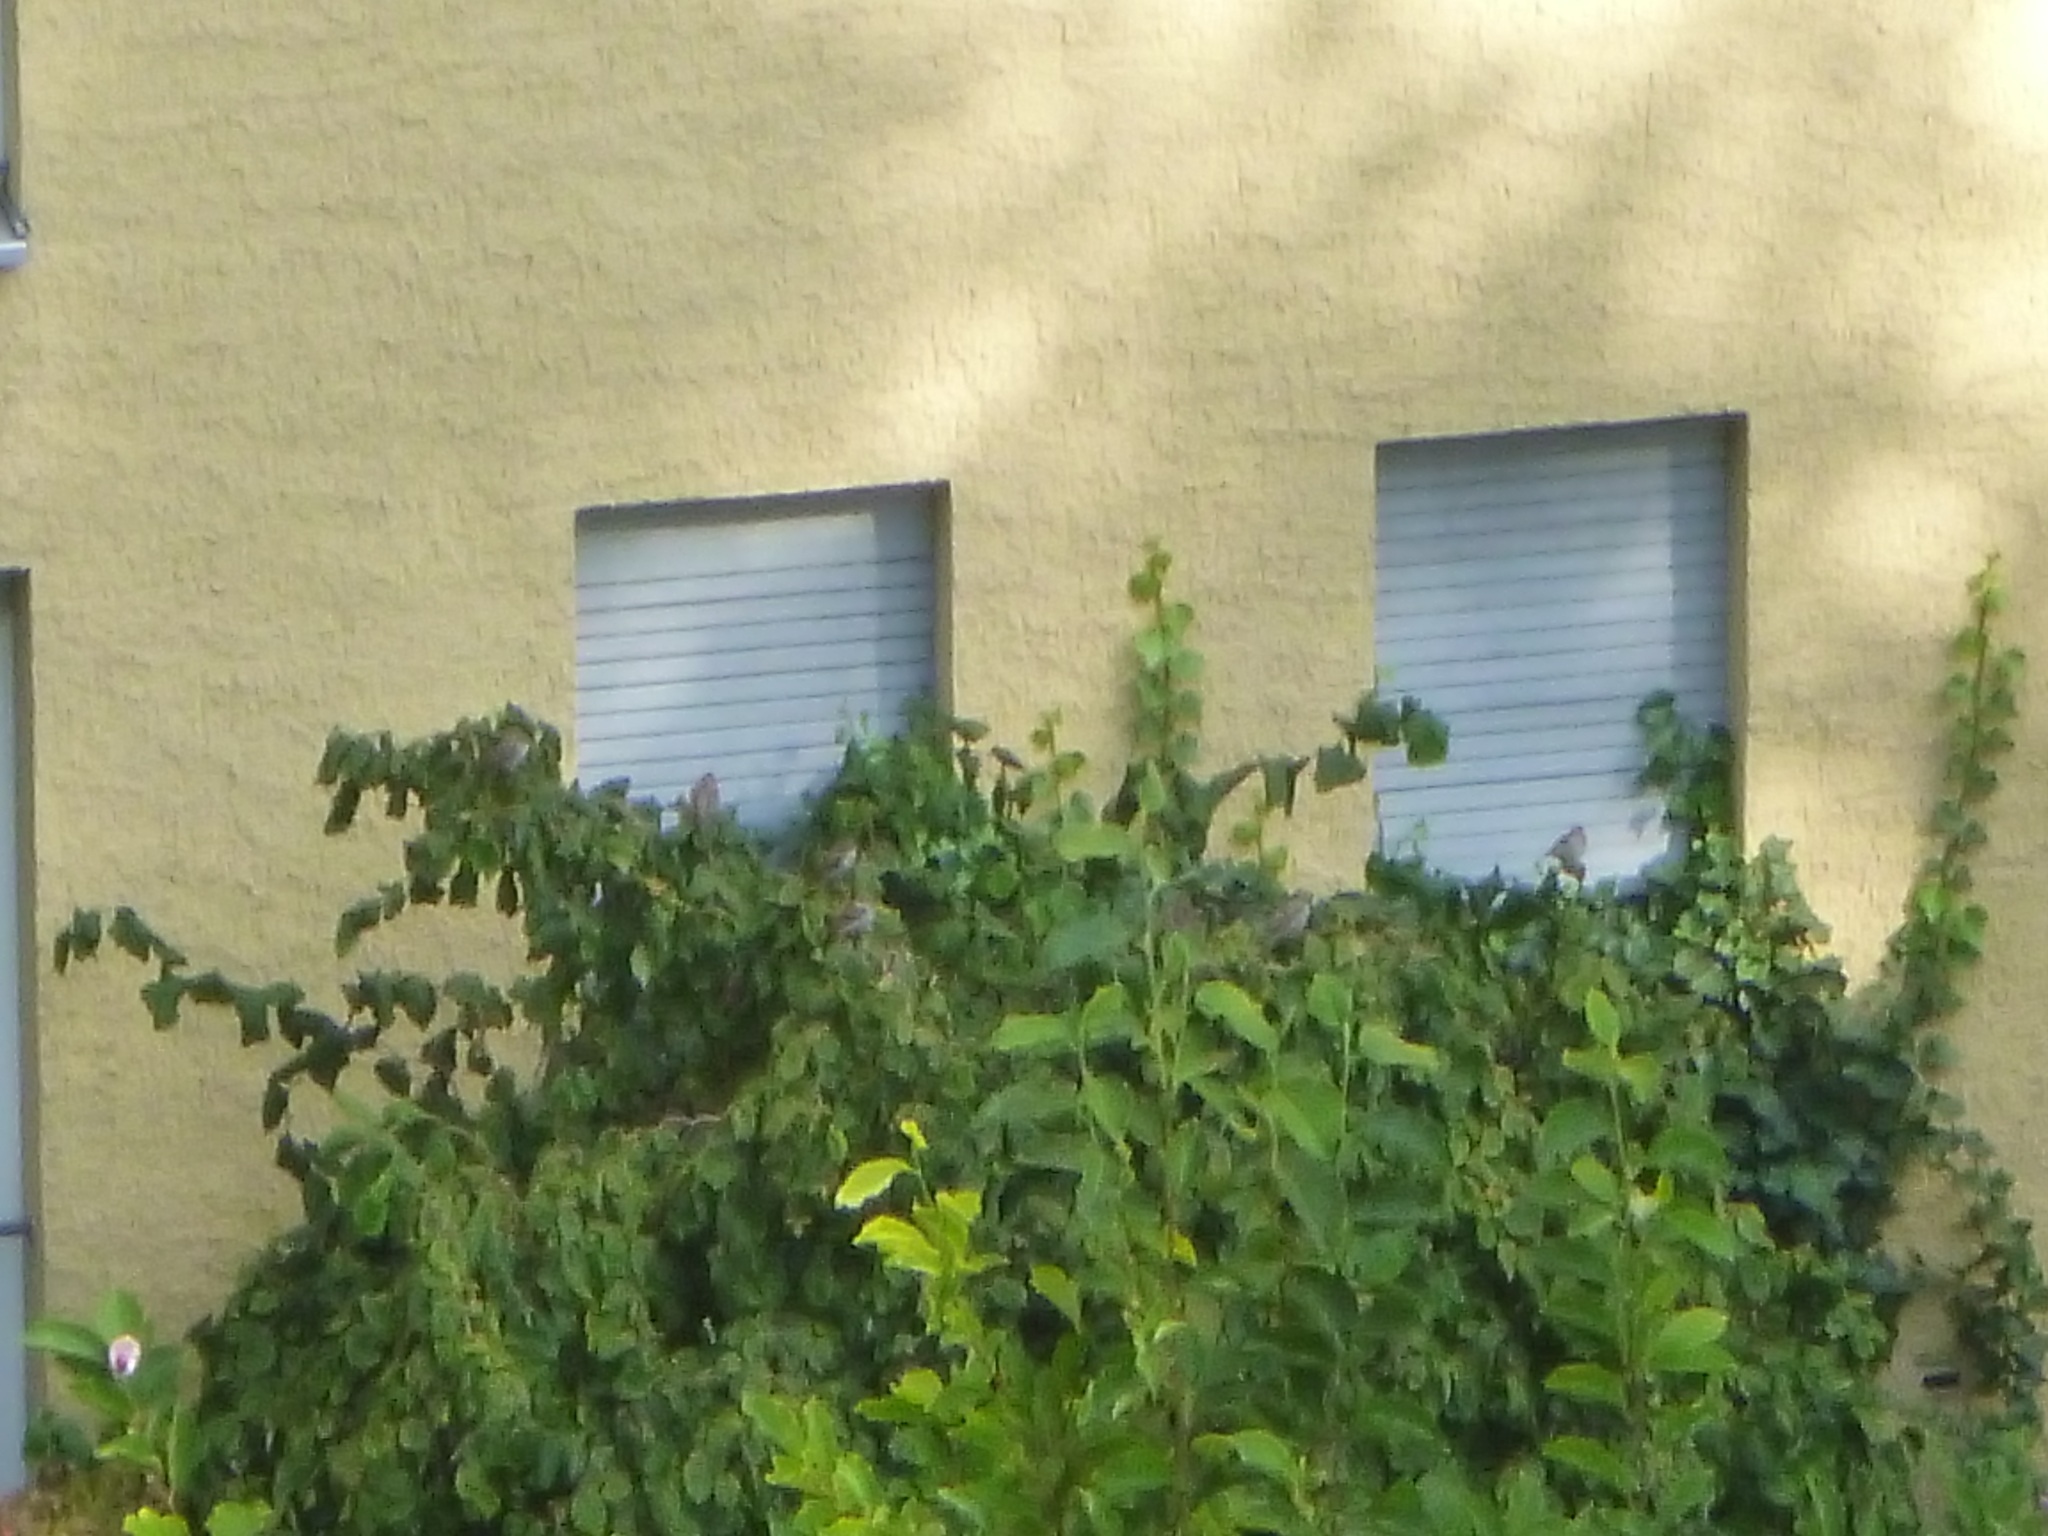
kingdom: Animalia
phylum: Chordata
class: Aves
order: Passeriformes
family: Passeridae
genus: Passer
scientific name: Passer domesticus
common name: House sparrow
